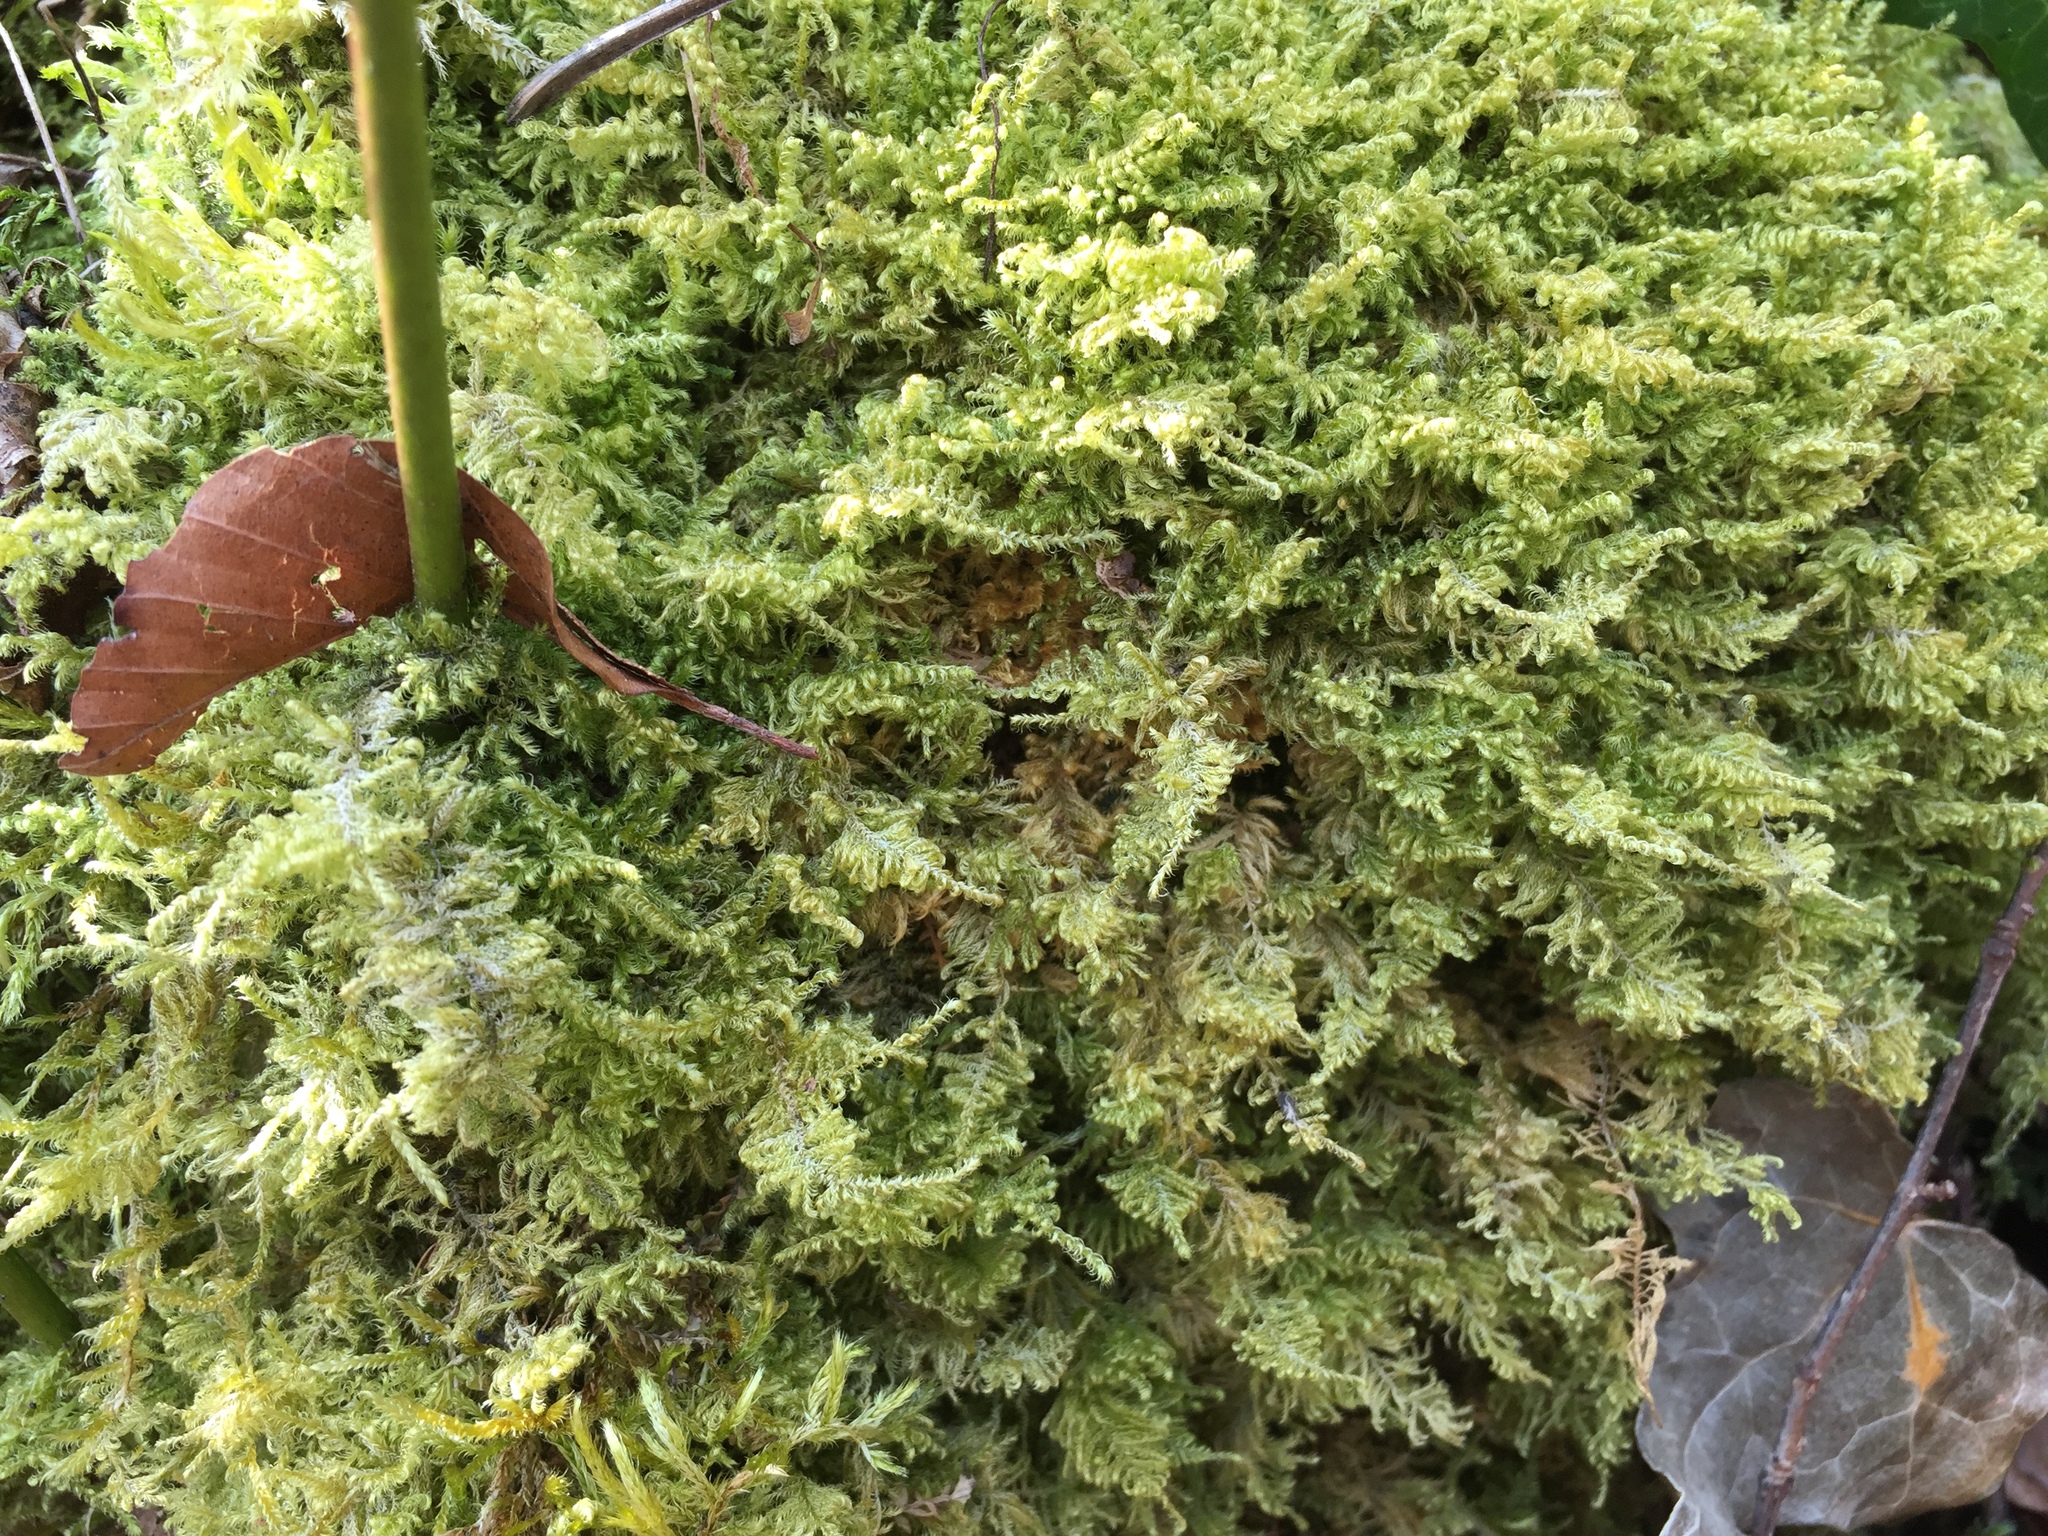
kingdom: Plantae
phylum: Bryophyta
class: Bryopsida
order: Hypnales
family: Myuriaceae
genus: Ctenidium
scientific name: Ctenidium molluscum
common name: Chalk comb-moss
